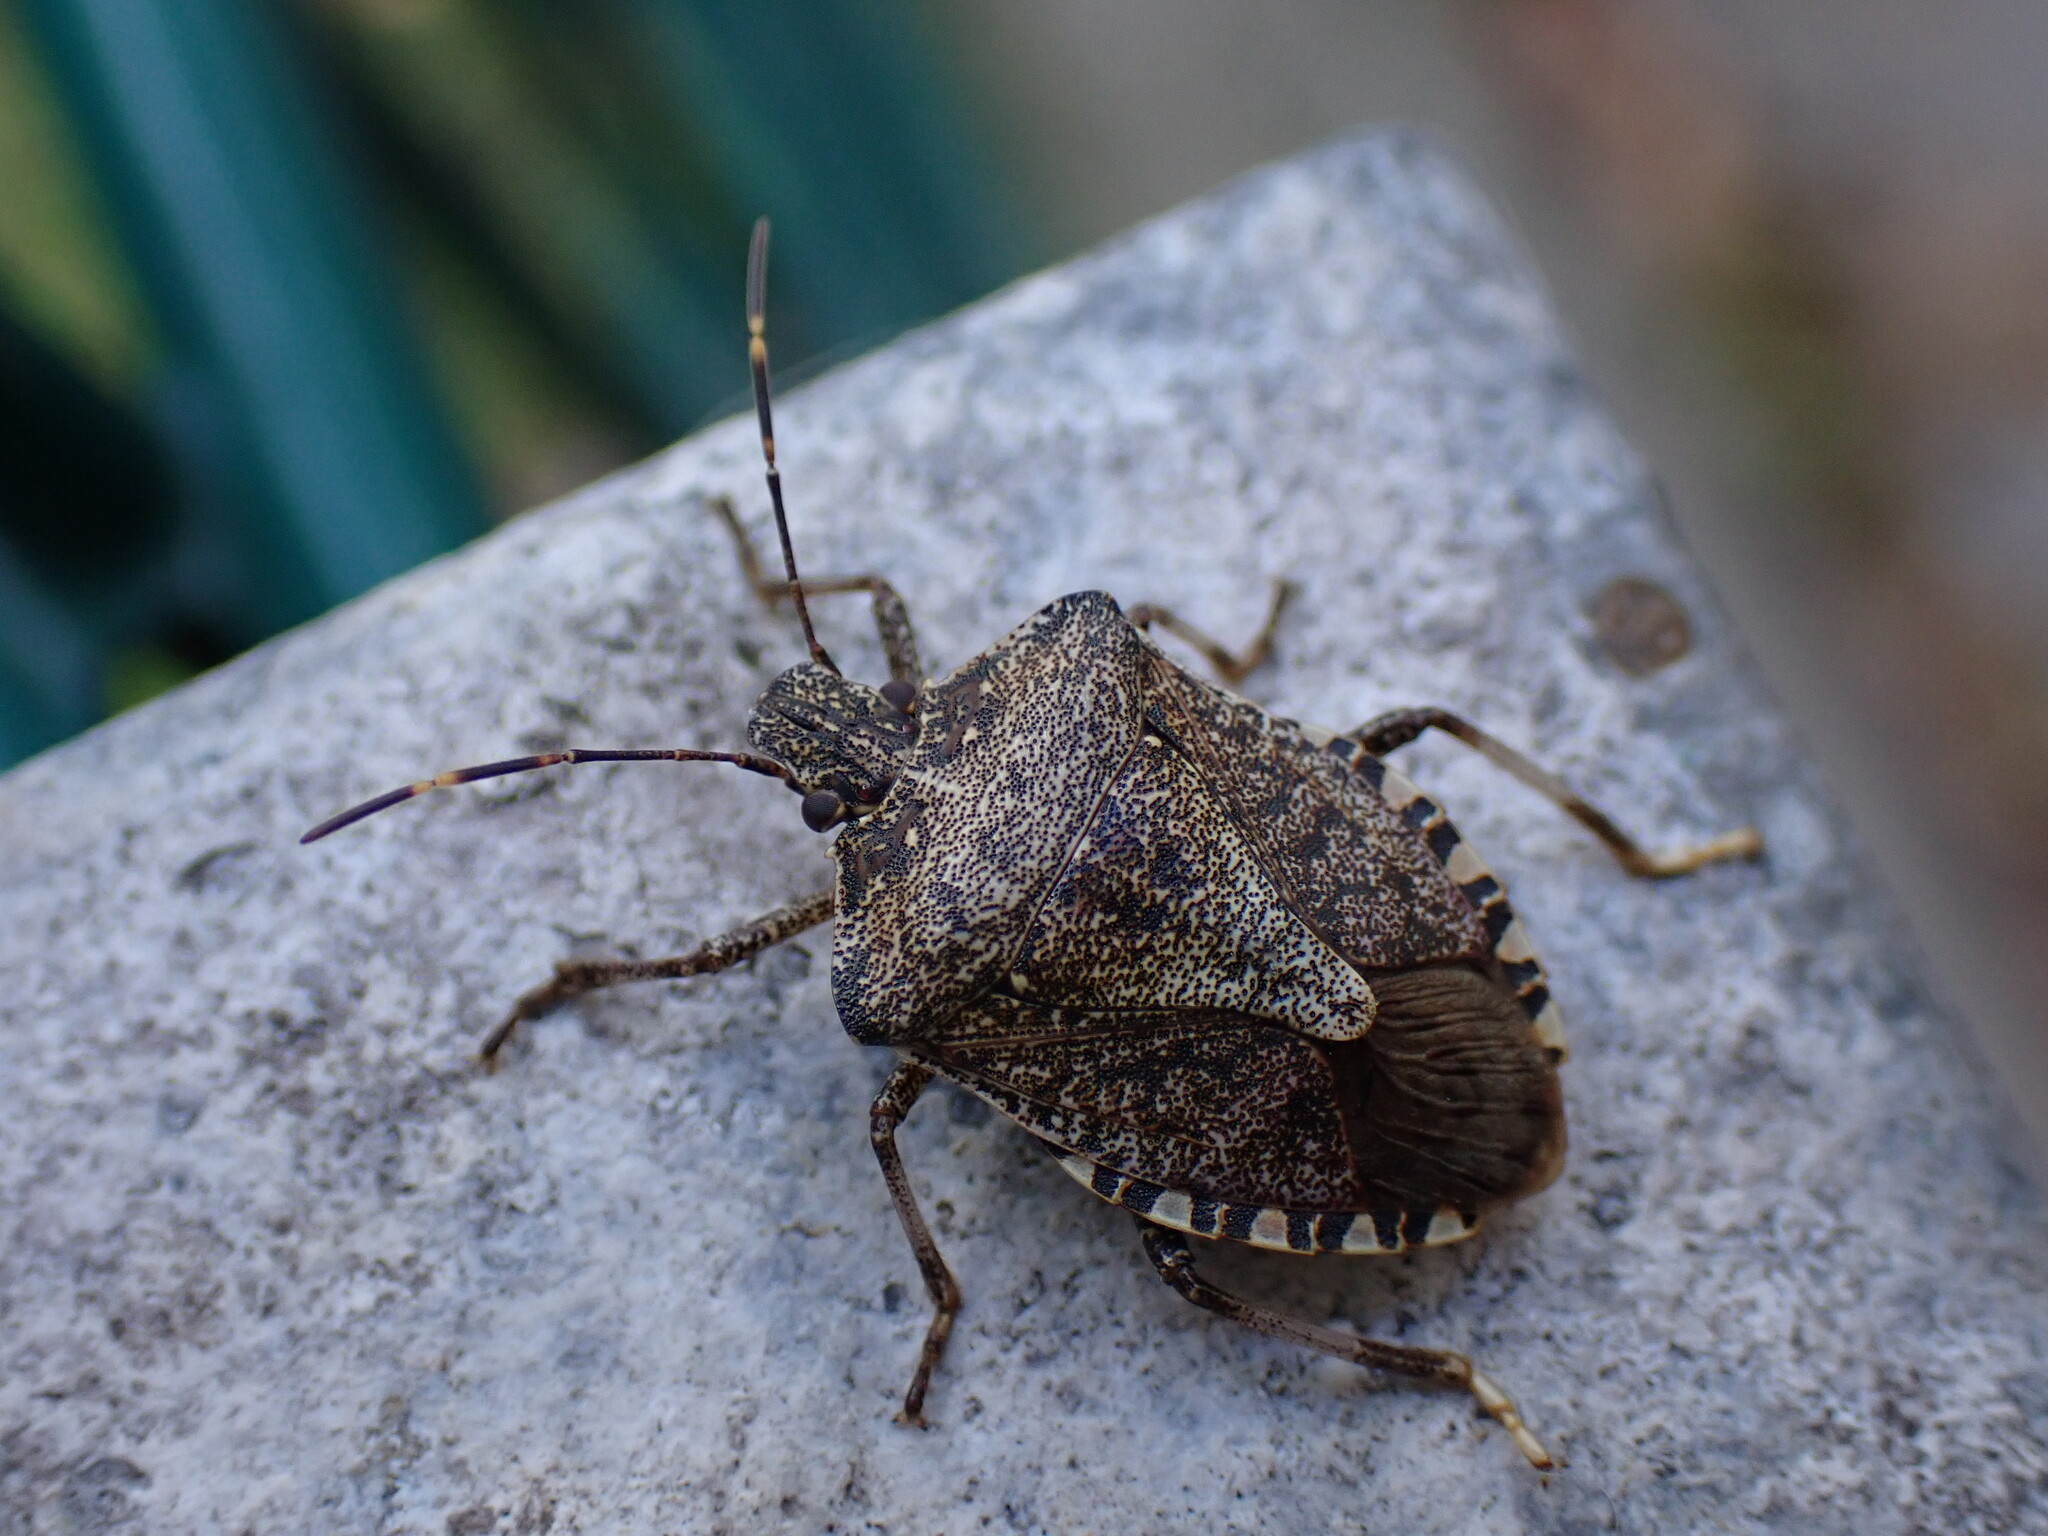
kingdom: Animalia
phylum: Arthropoda
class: Insecta
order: Hemiptera
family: Pentatomidae
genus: Halyomorpha
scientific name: Halyomorpha halys
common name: Brown marmorated stink bug
